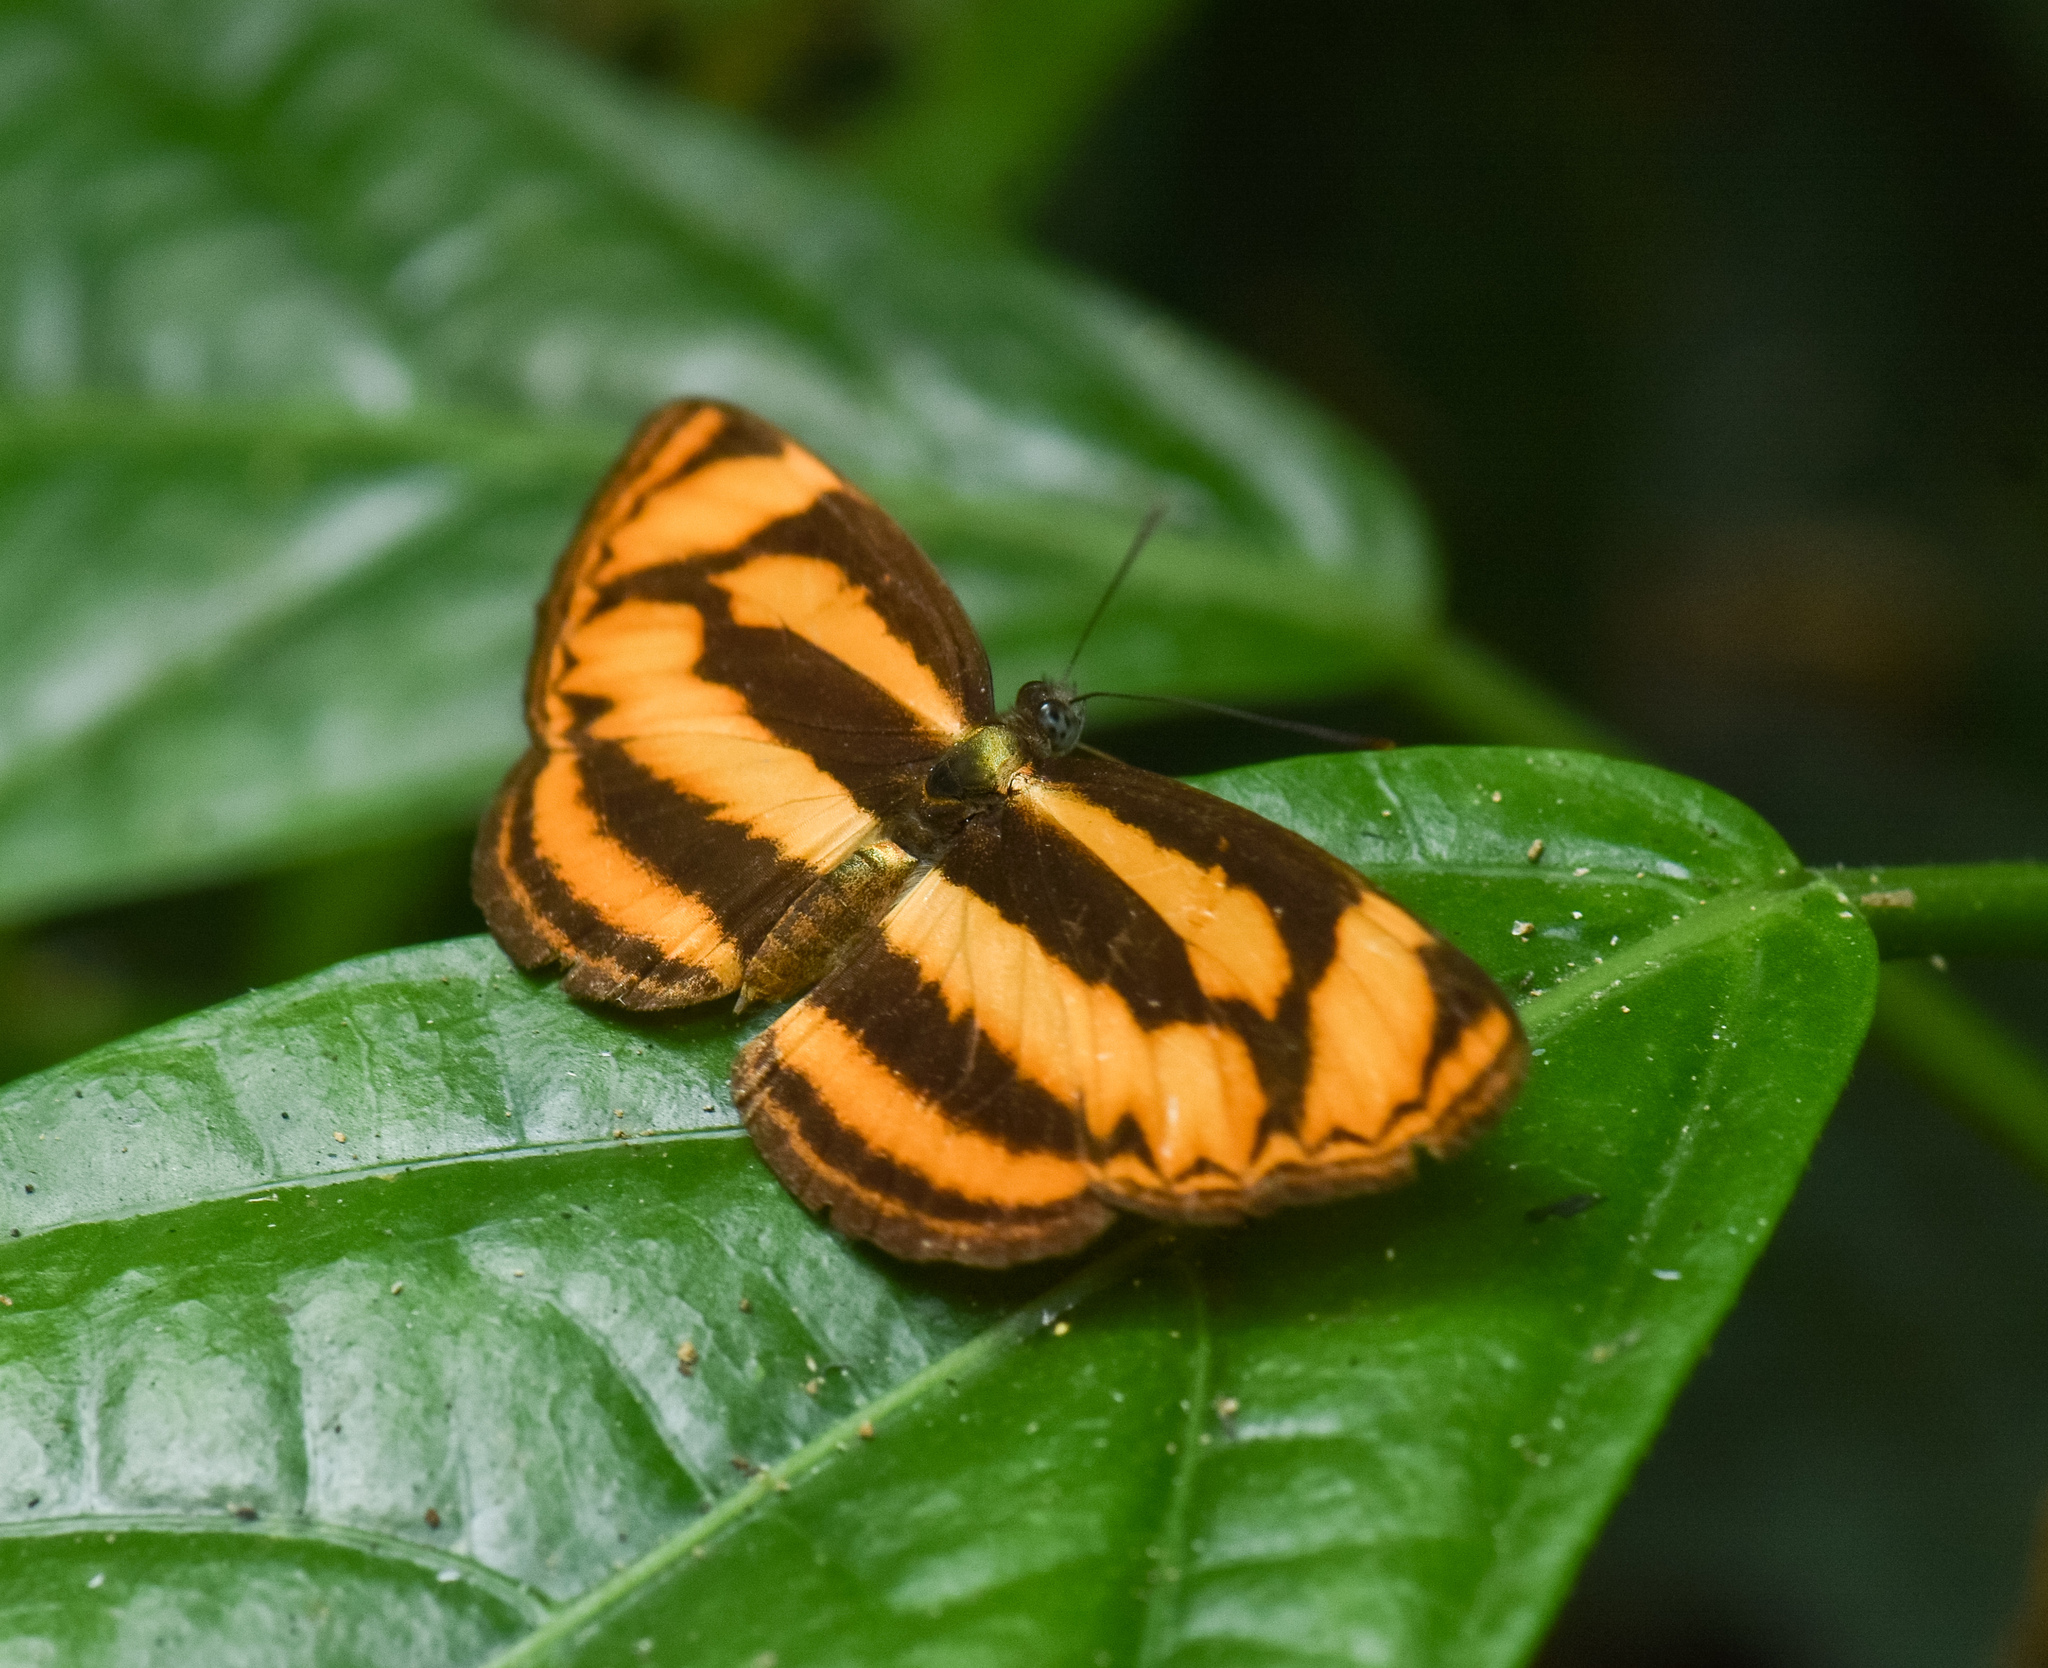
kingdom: Animalia
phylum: Arthropoda
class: Insecta
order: Lepidoptera
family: Nymphalidae
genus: Lasippa
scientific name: Lasippa
